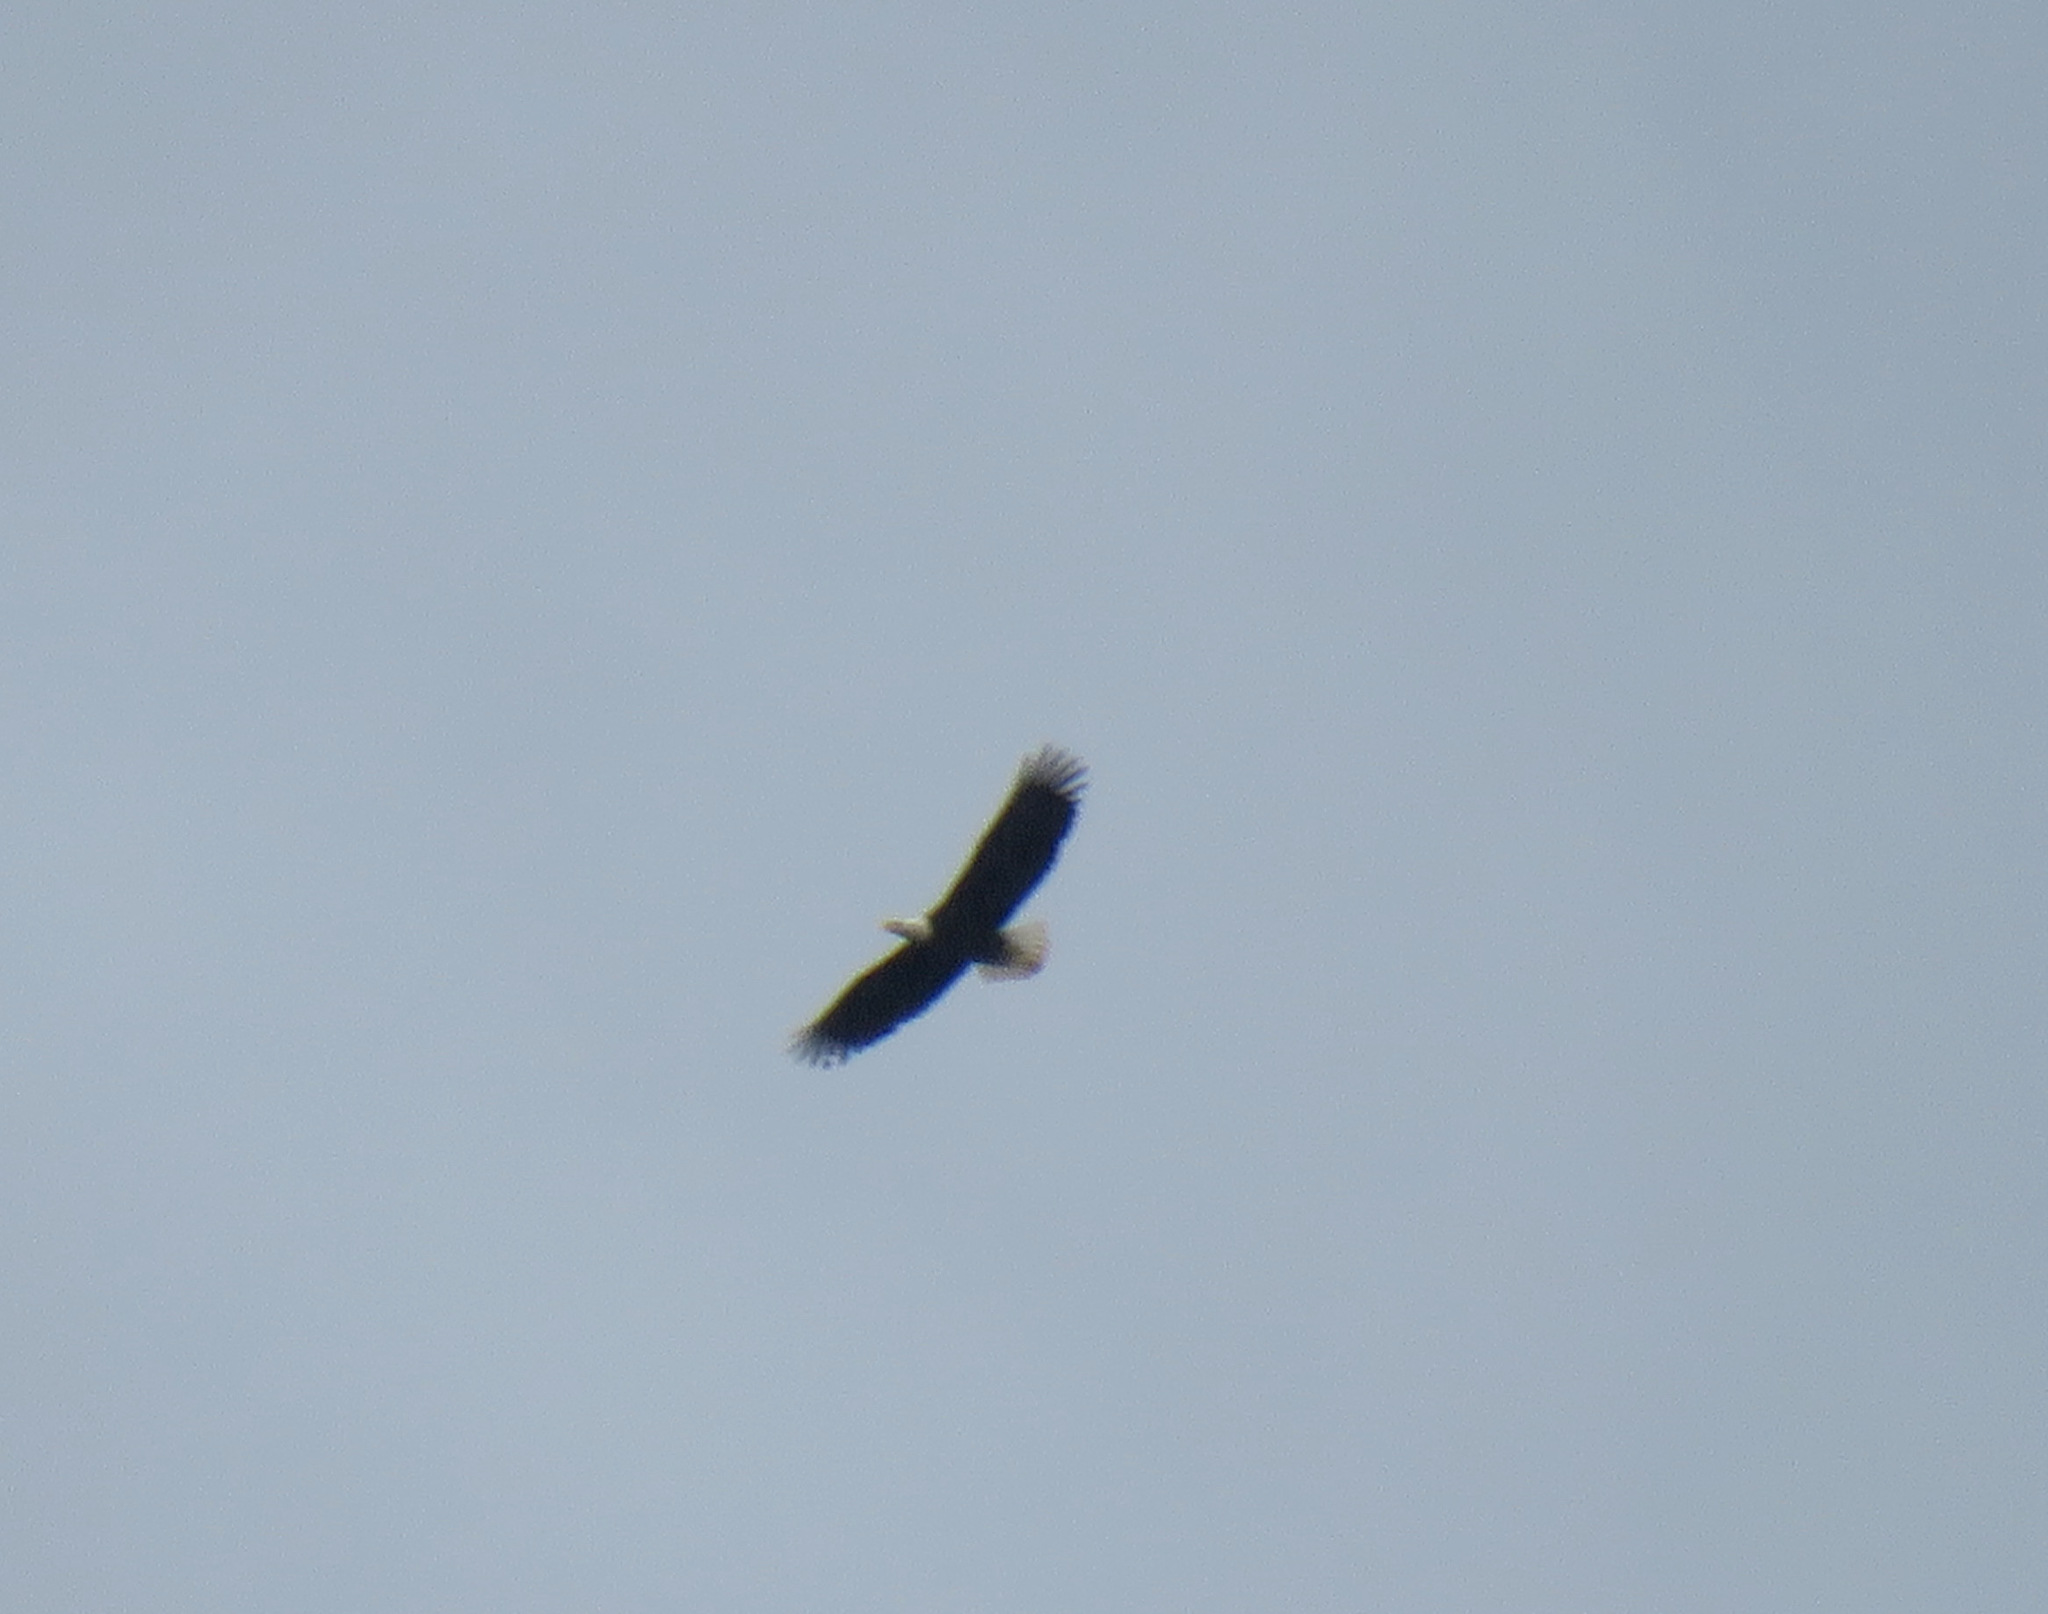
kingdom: Animalia
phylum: Chordata
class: Aves
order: Accipitriformes
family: Accipitridae
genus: Haliaeetus
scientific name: Haliaeetus leucocephalus
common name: Bald eagle
